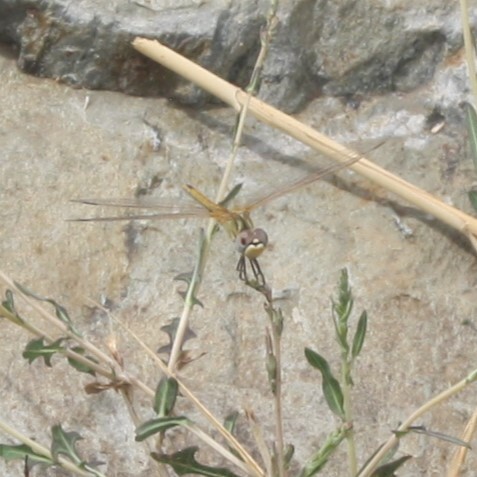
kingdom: Animalia
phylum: Arthropoda
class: Insecta
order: Odonata
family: Libellulidae
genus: Sympetrum
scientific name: Sympetrum fonscolombii
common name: Red-veined darter
